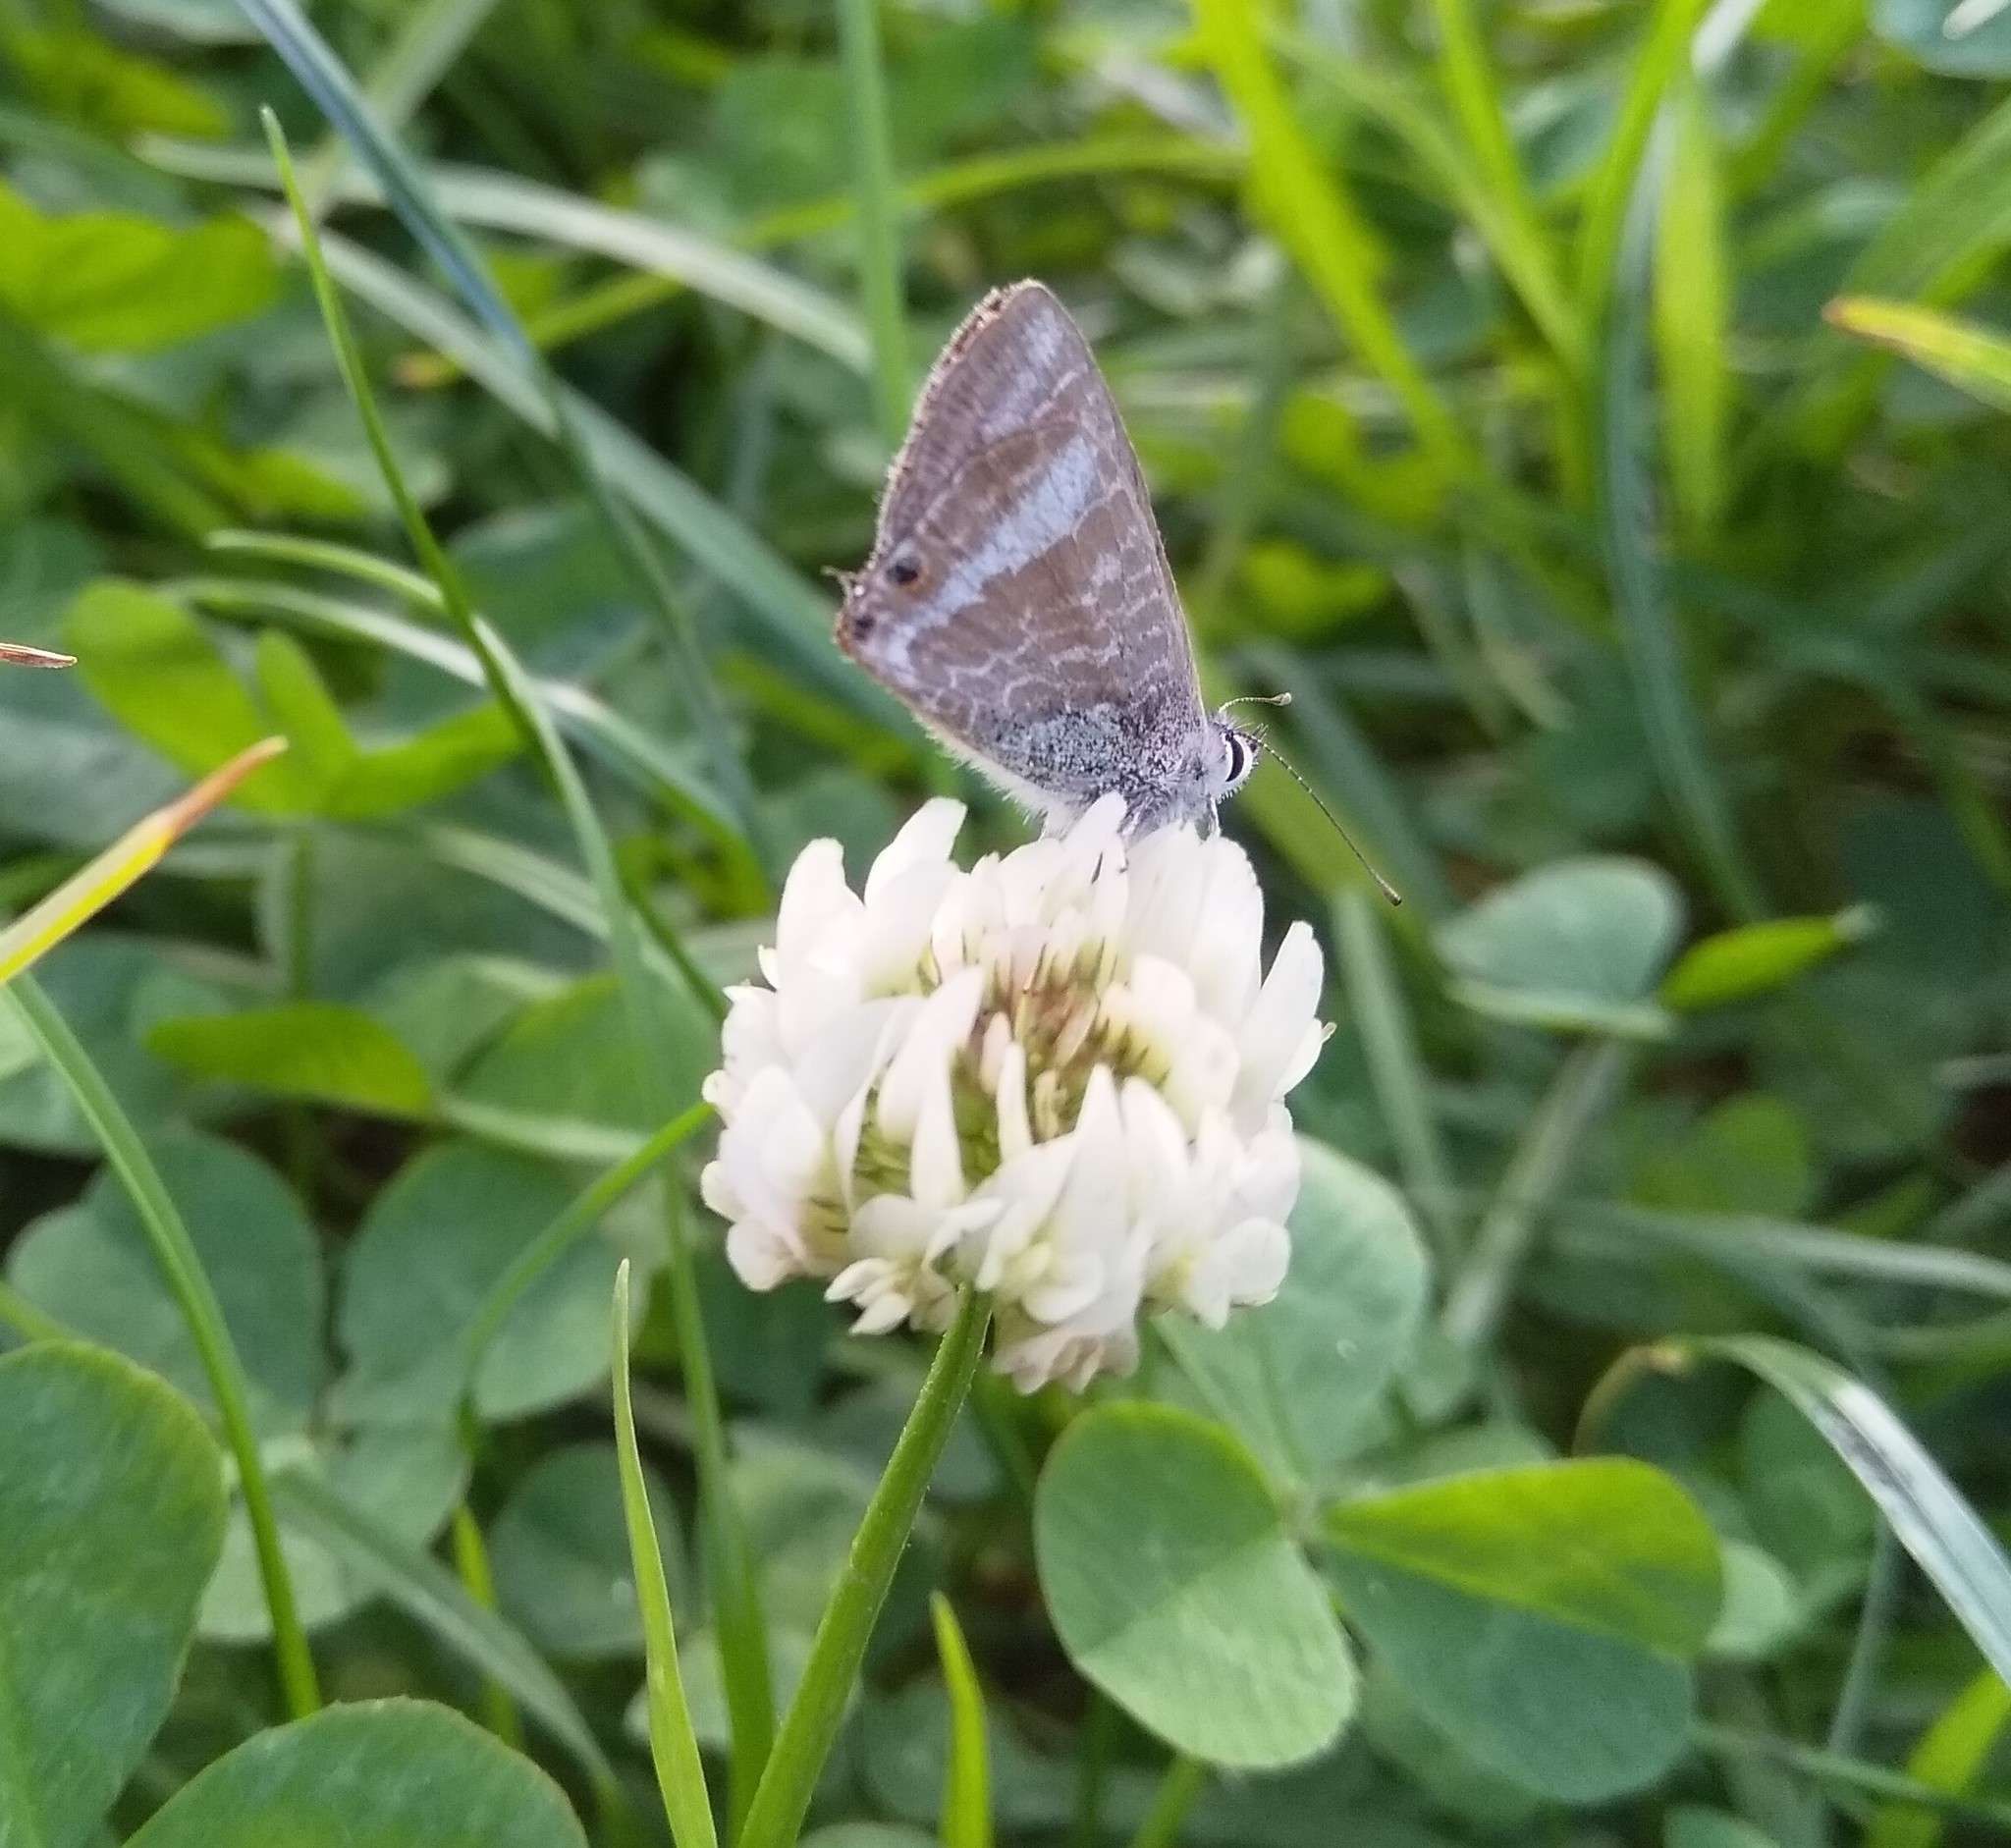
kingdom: Animalia
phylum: Arthropoda
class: Insecta
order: Lepidoptera
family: Lycaenidae
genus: Lampides
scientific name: Lampides boeticus
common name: Long-tailed blue
